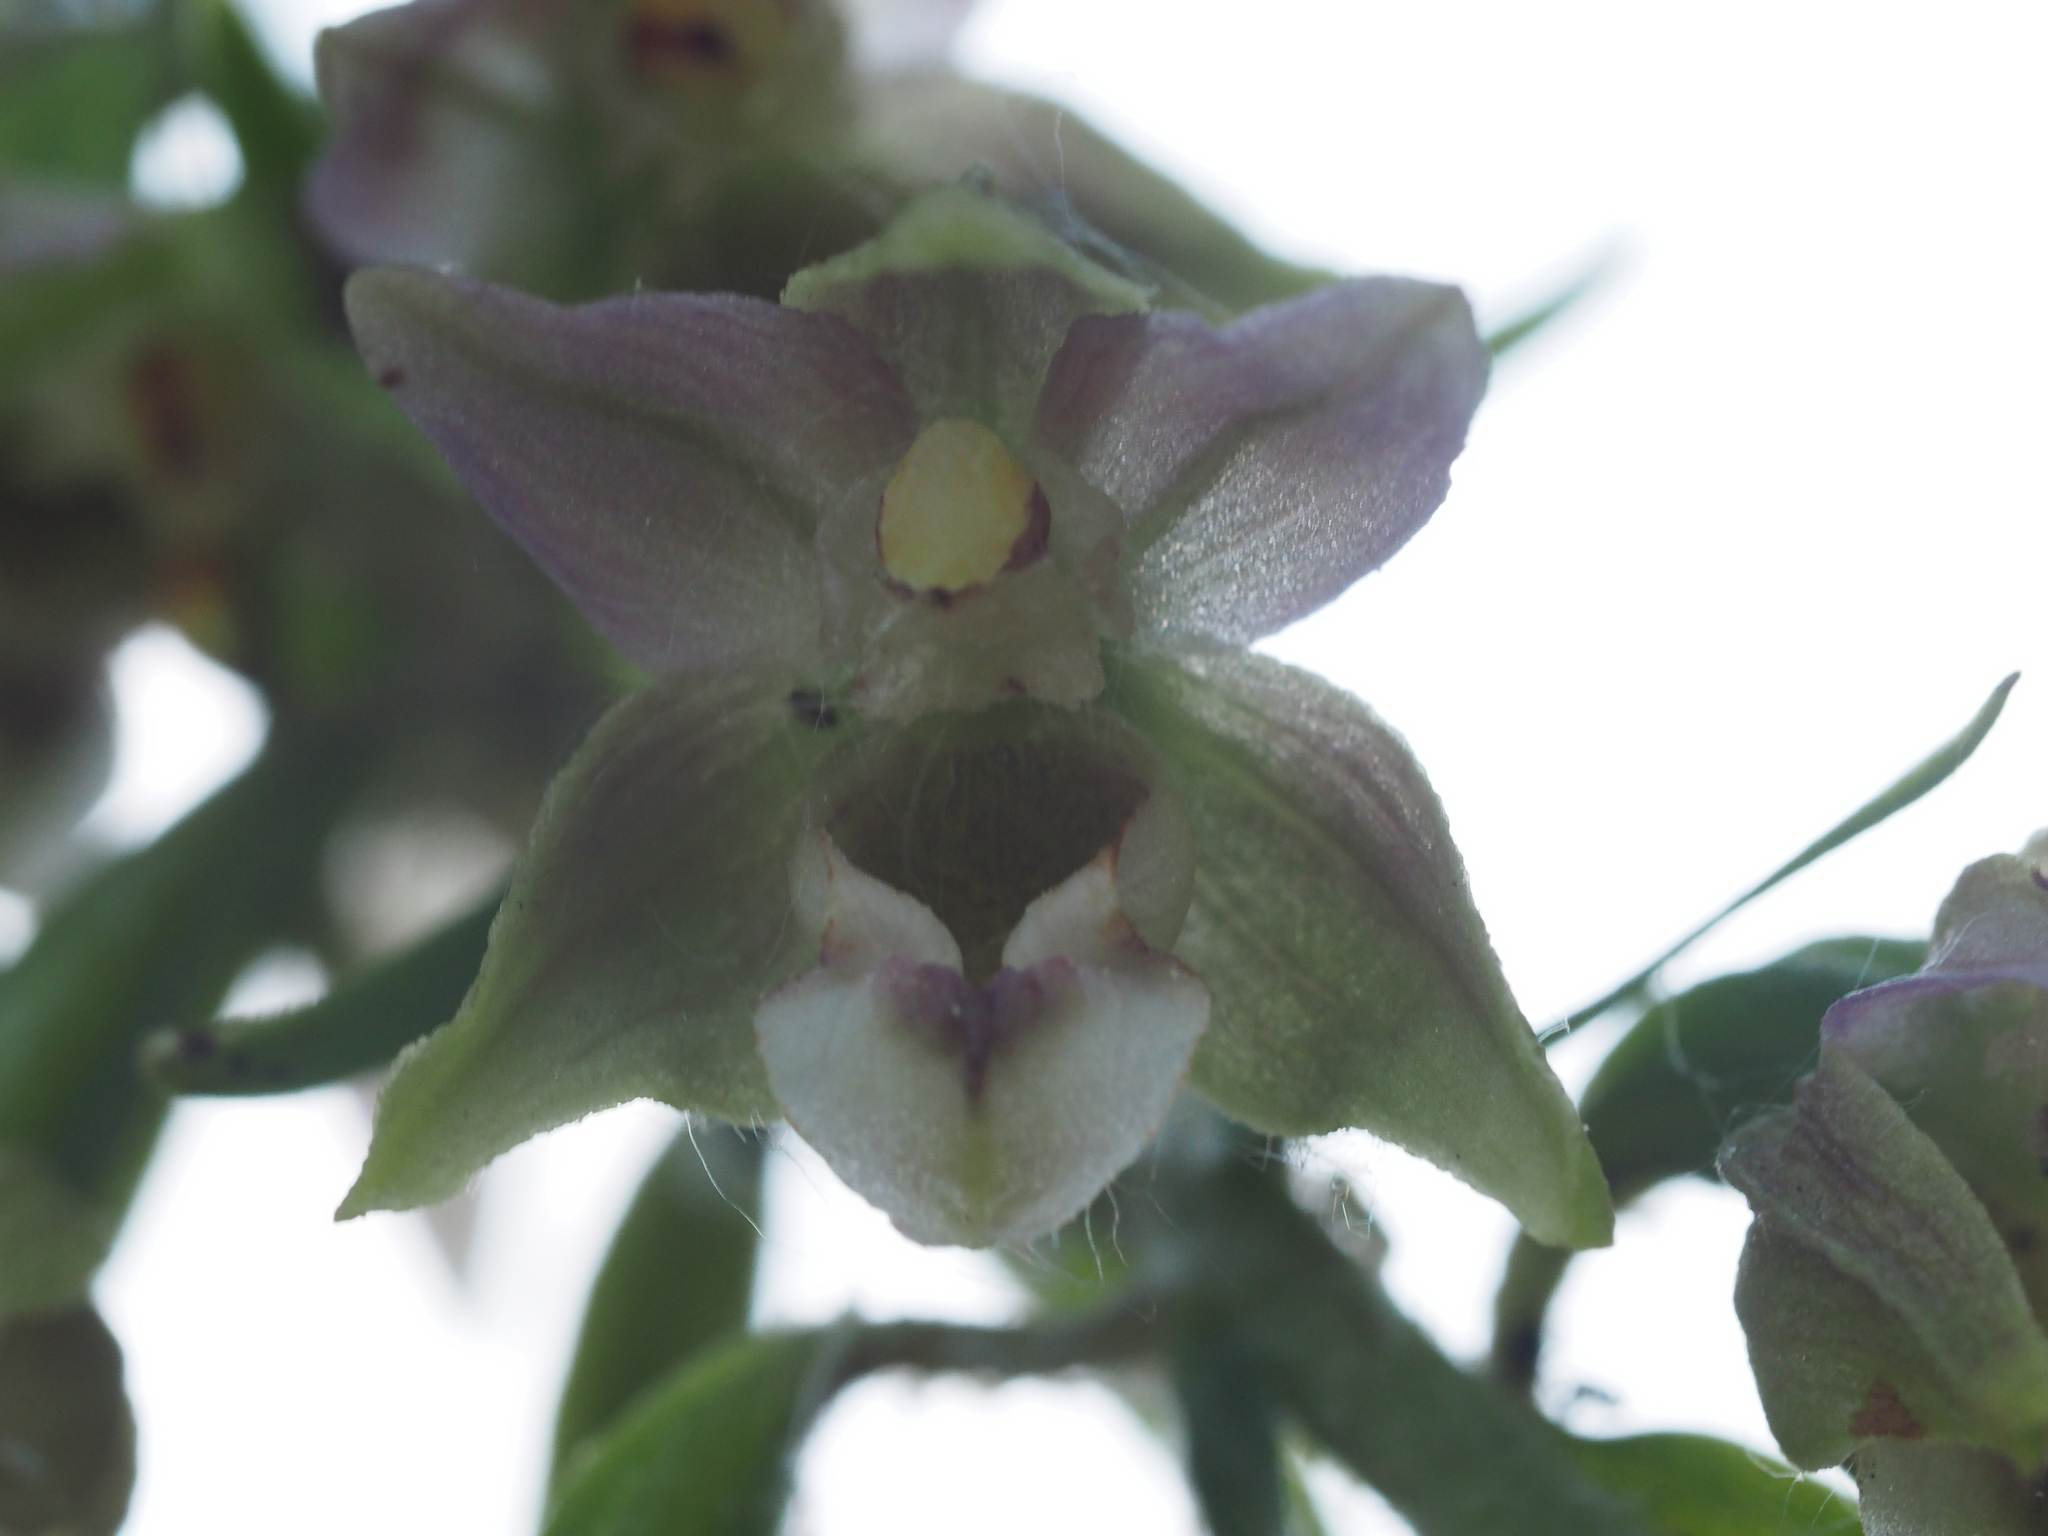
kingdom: Plantae
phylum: Tracheophyta
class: Liliopsida
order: Asparagales
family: Orchidaceae
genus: Epipactis
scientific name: Epipactis bugacensis
